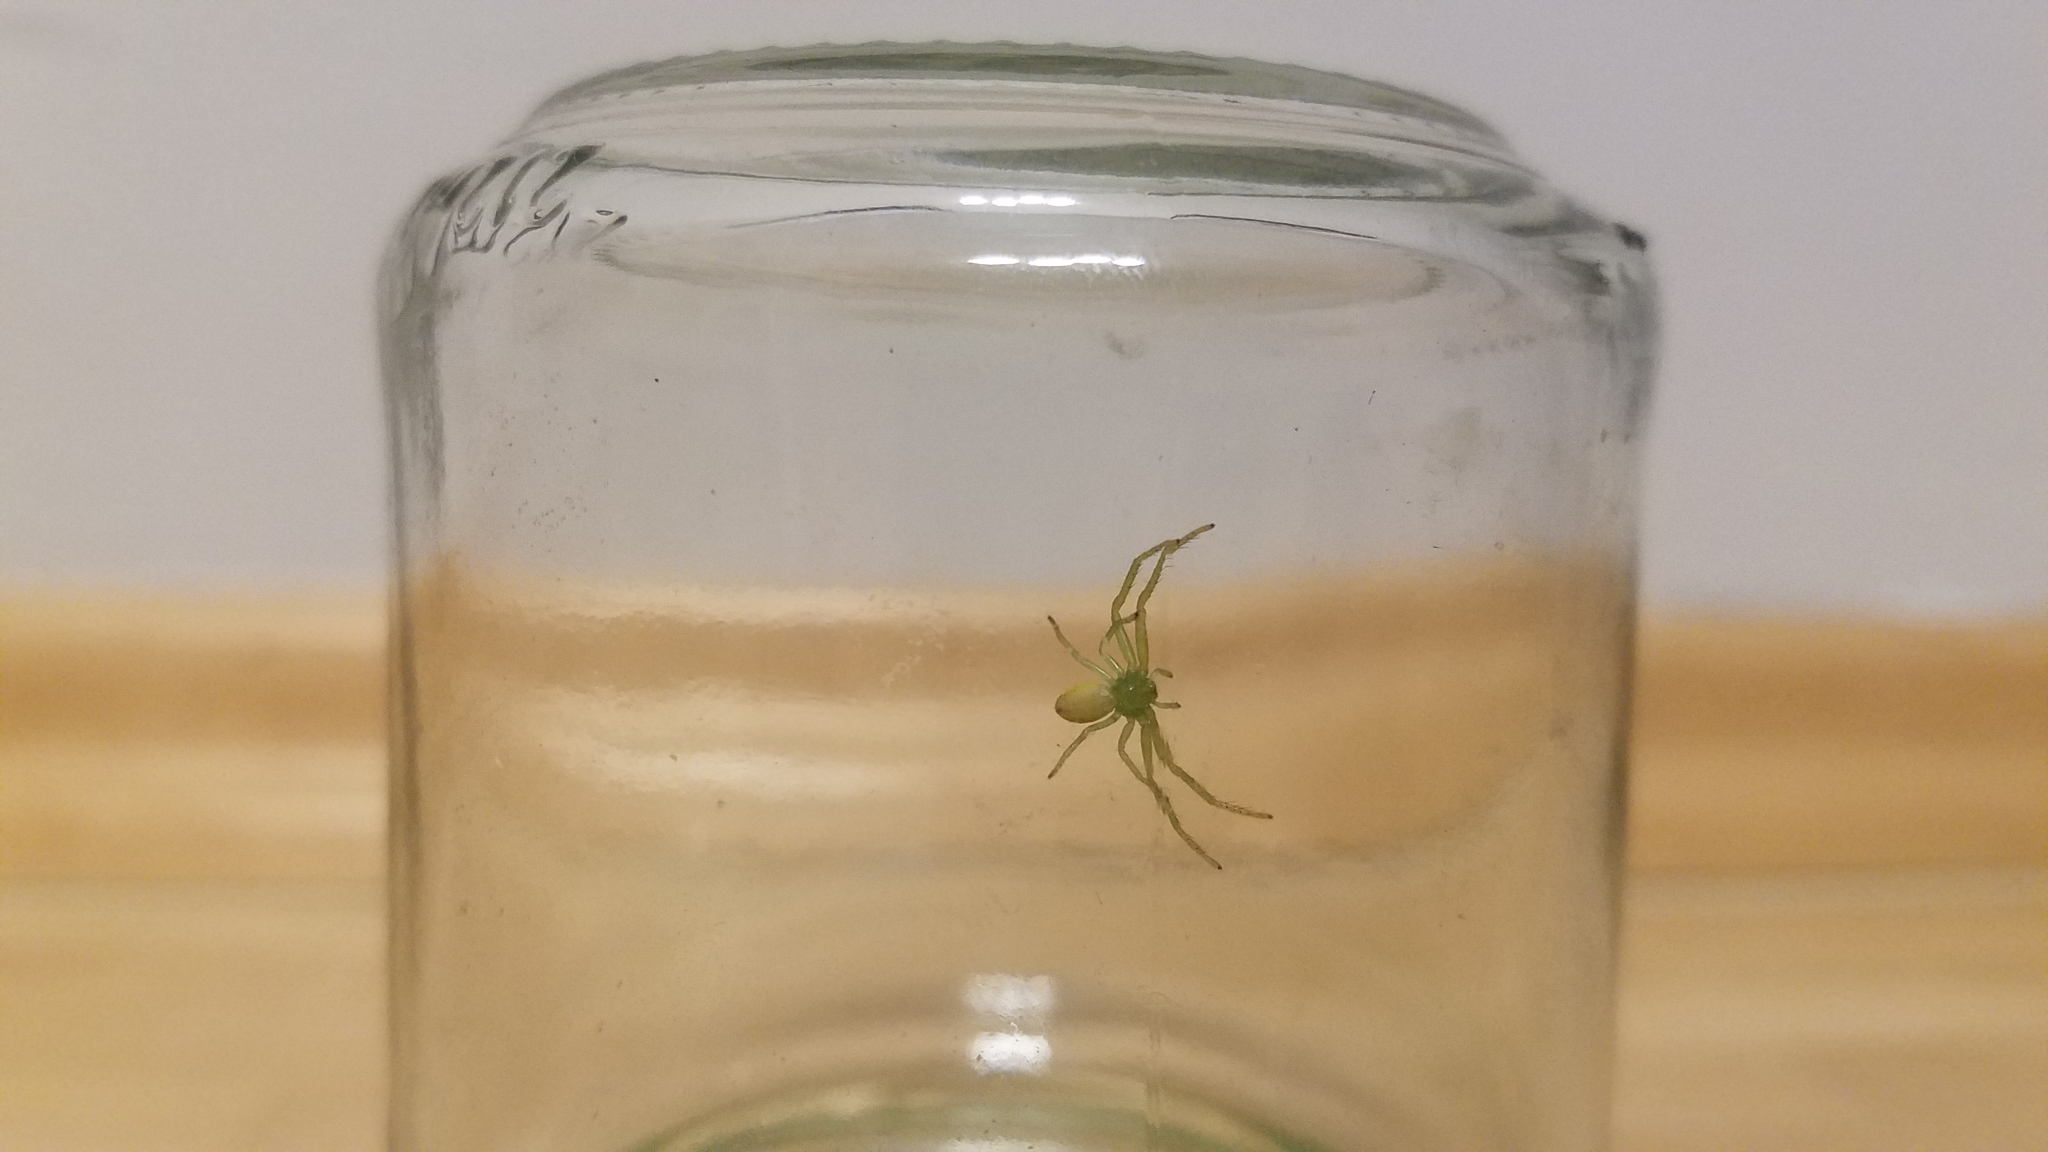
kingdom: Animalia
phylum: Arthropoda
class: Arachnida
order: Araneae
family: Thomisidae
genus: Diaea
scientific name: Diaea dorsata
